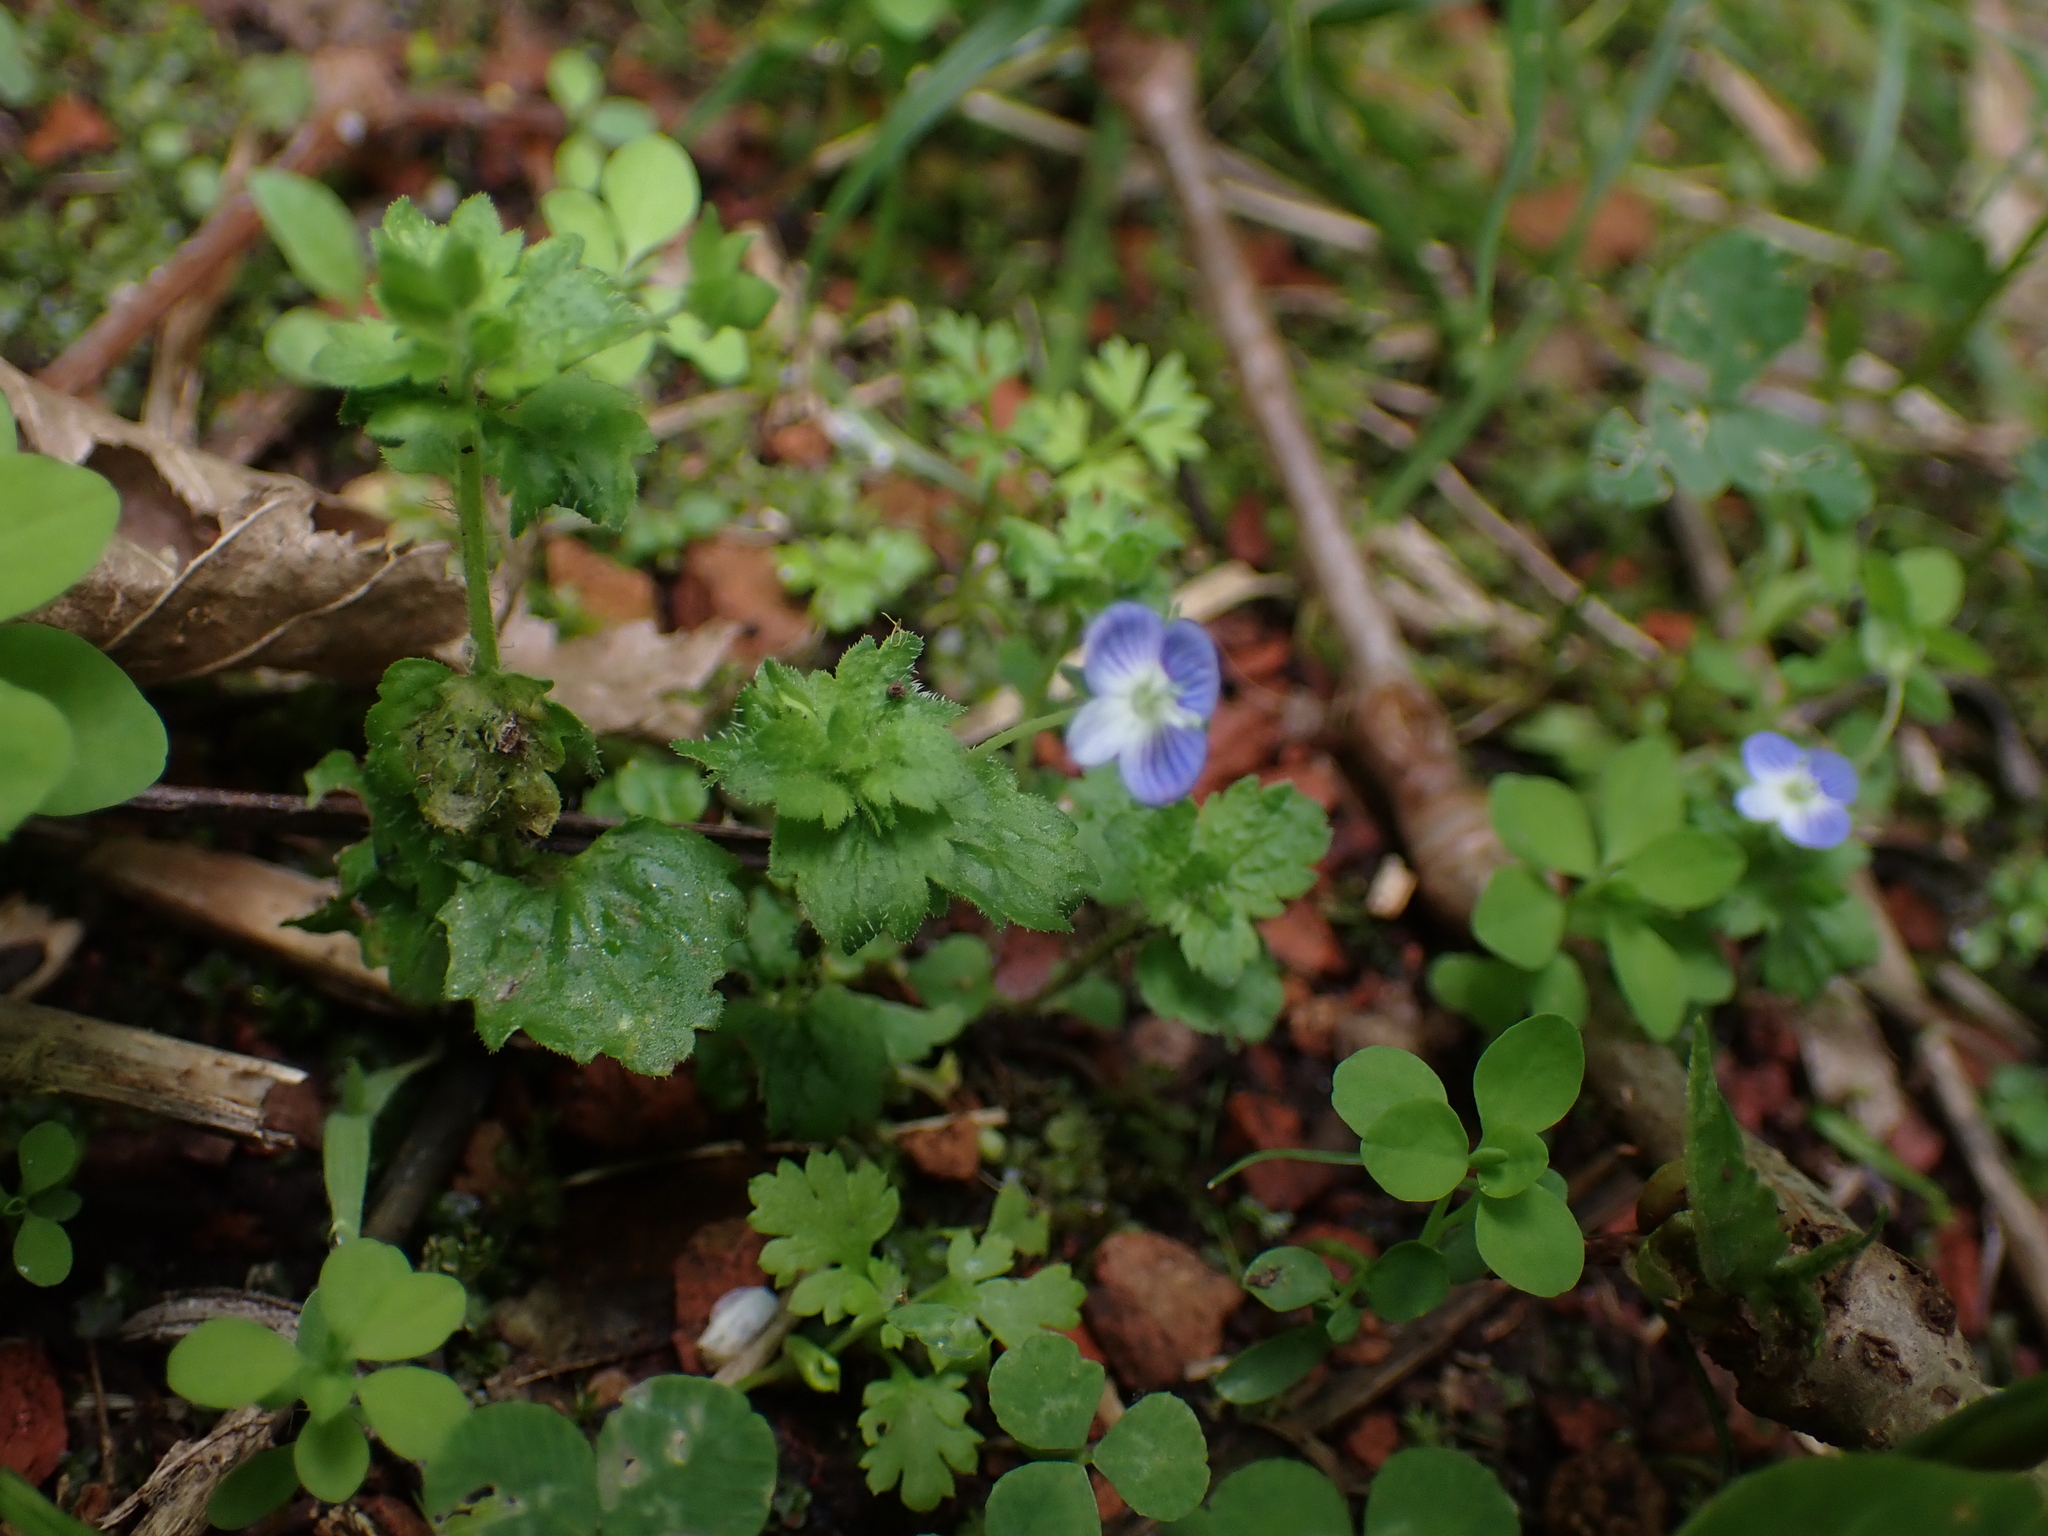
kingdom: Plantae
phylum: Tracheophyta
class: Magnoliopsida
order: Lamiales
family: Plantaginaceae
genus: Veronica
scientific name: Veronica persica
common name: Common field-speedwell
